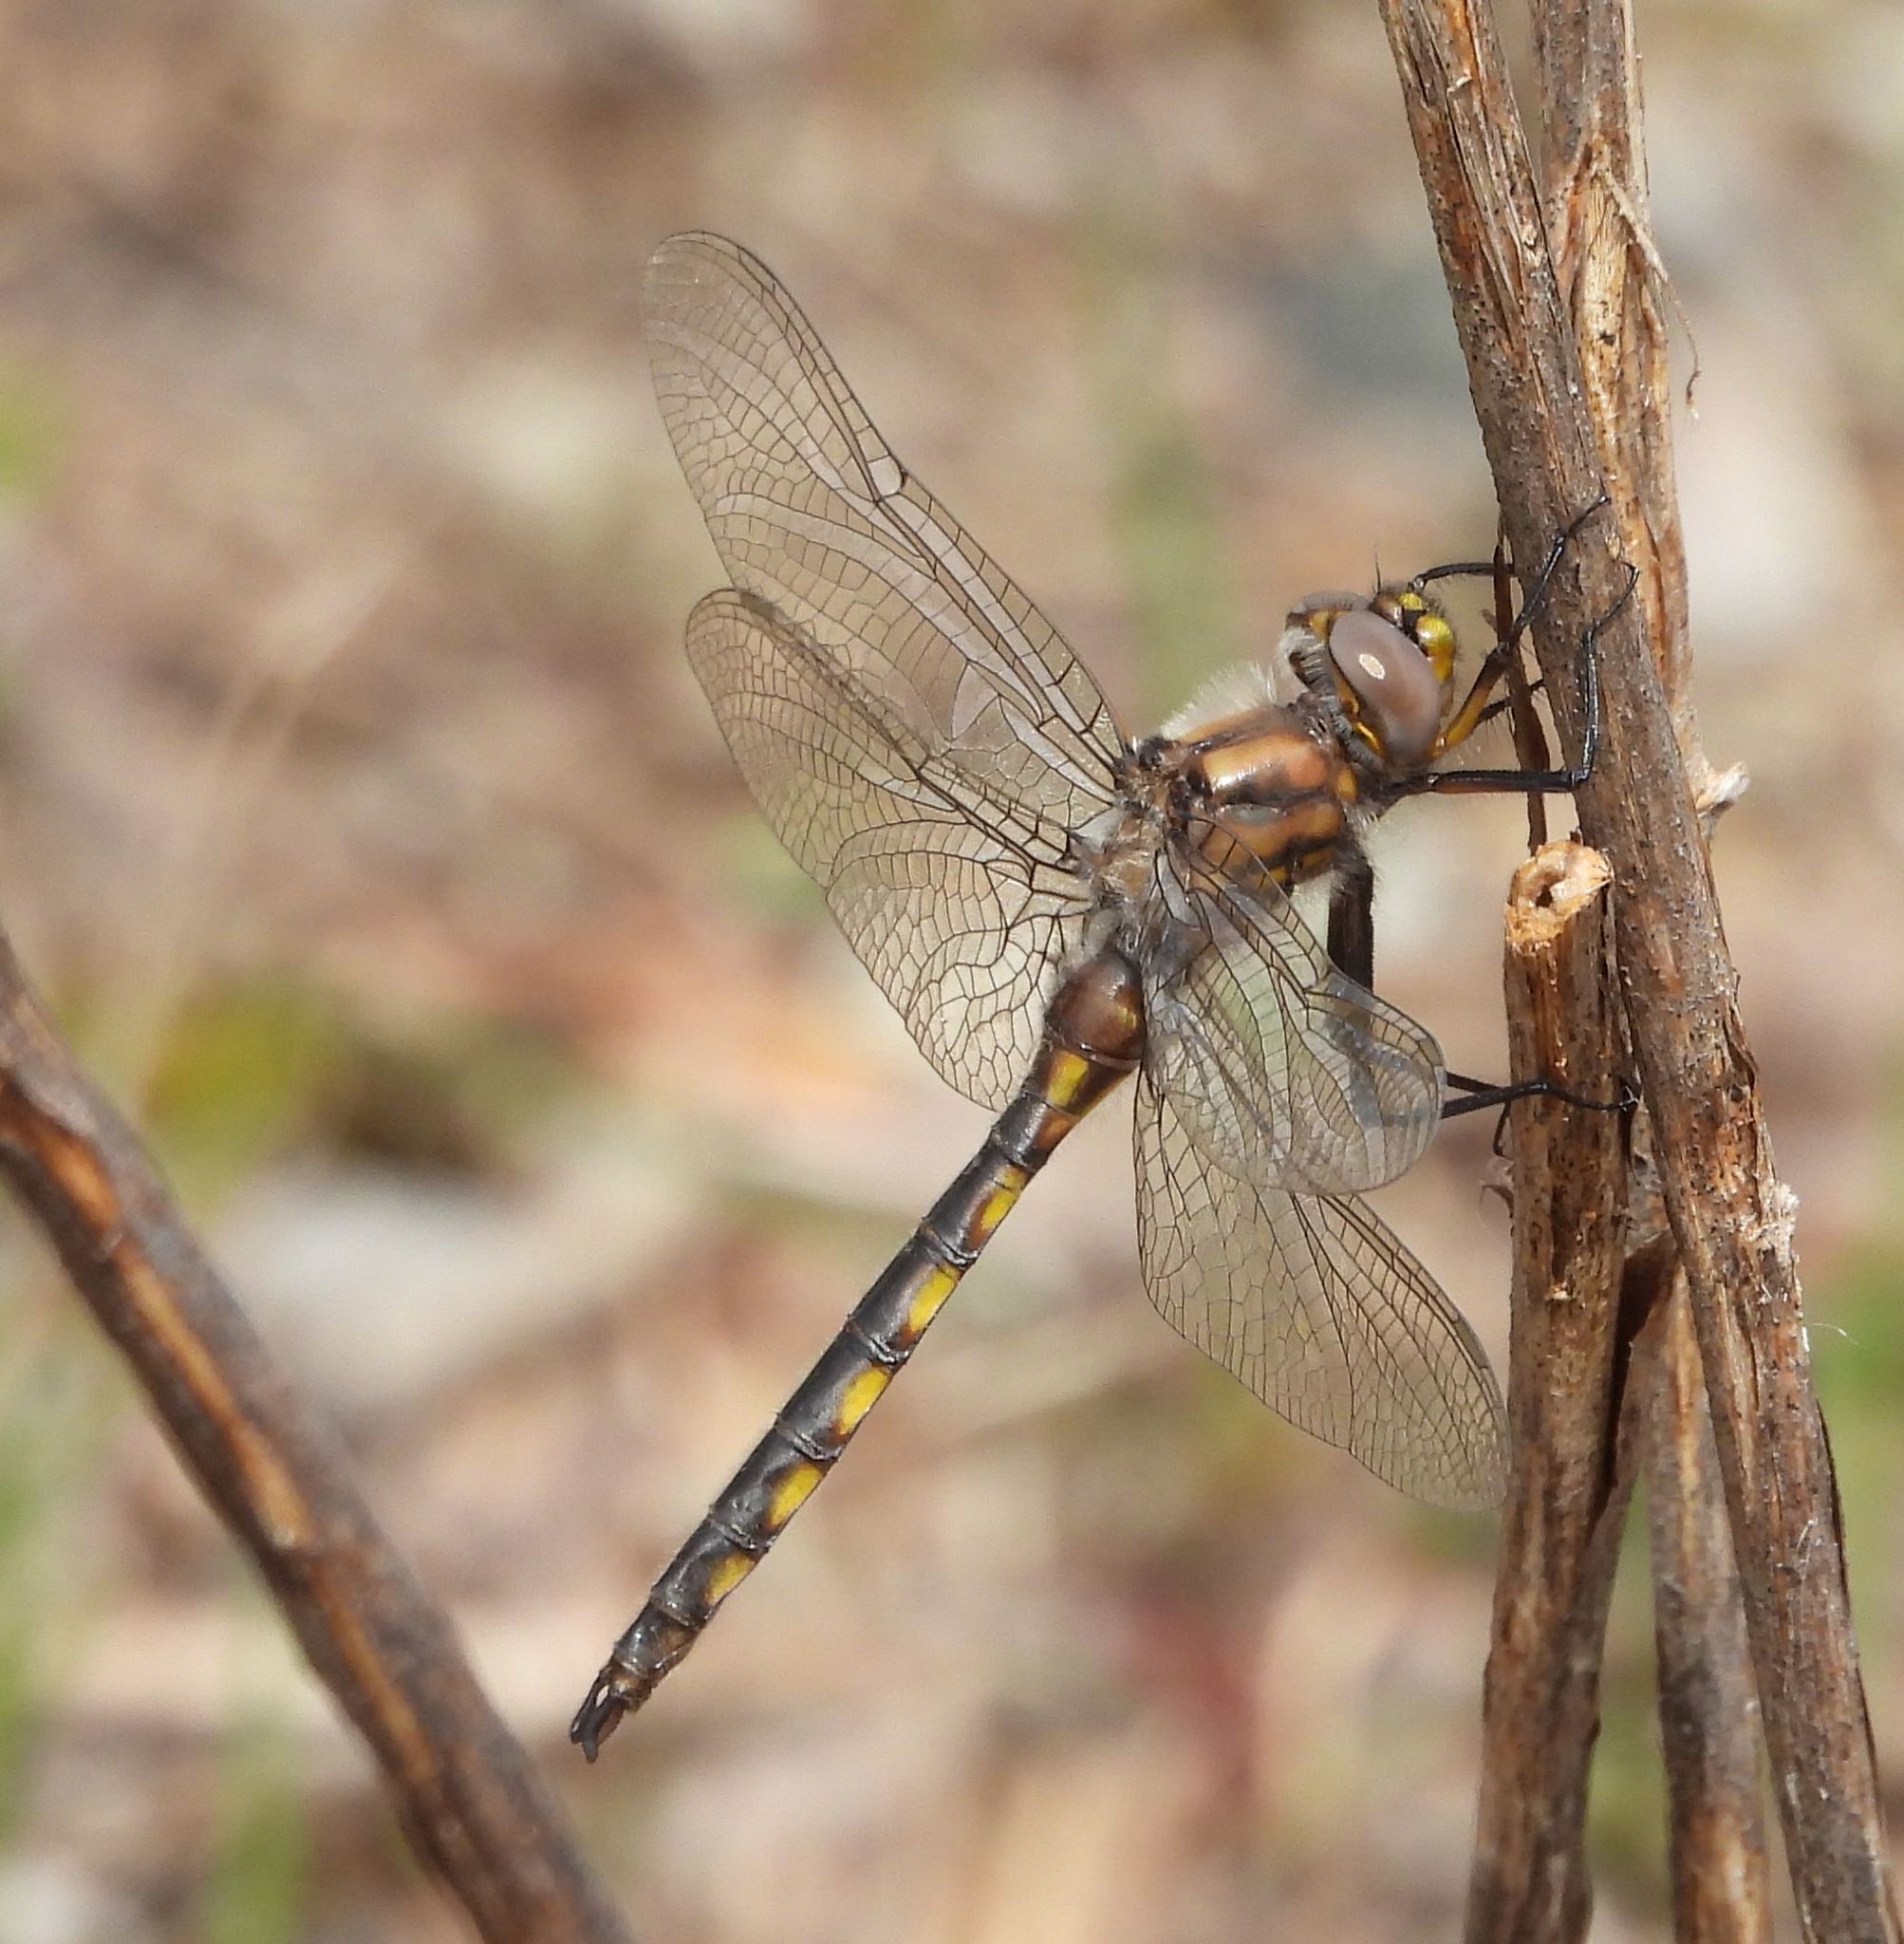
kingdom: Animalia
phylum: Arthropoda
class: Insecta
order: Odonata
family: Corduliidae
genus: Epitheca
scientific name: Epitheca canis
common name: Beaverpond baskettail
